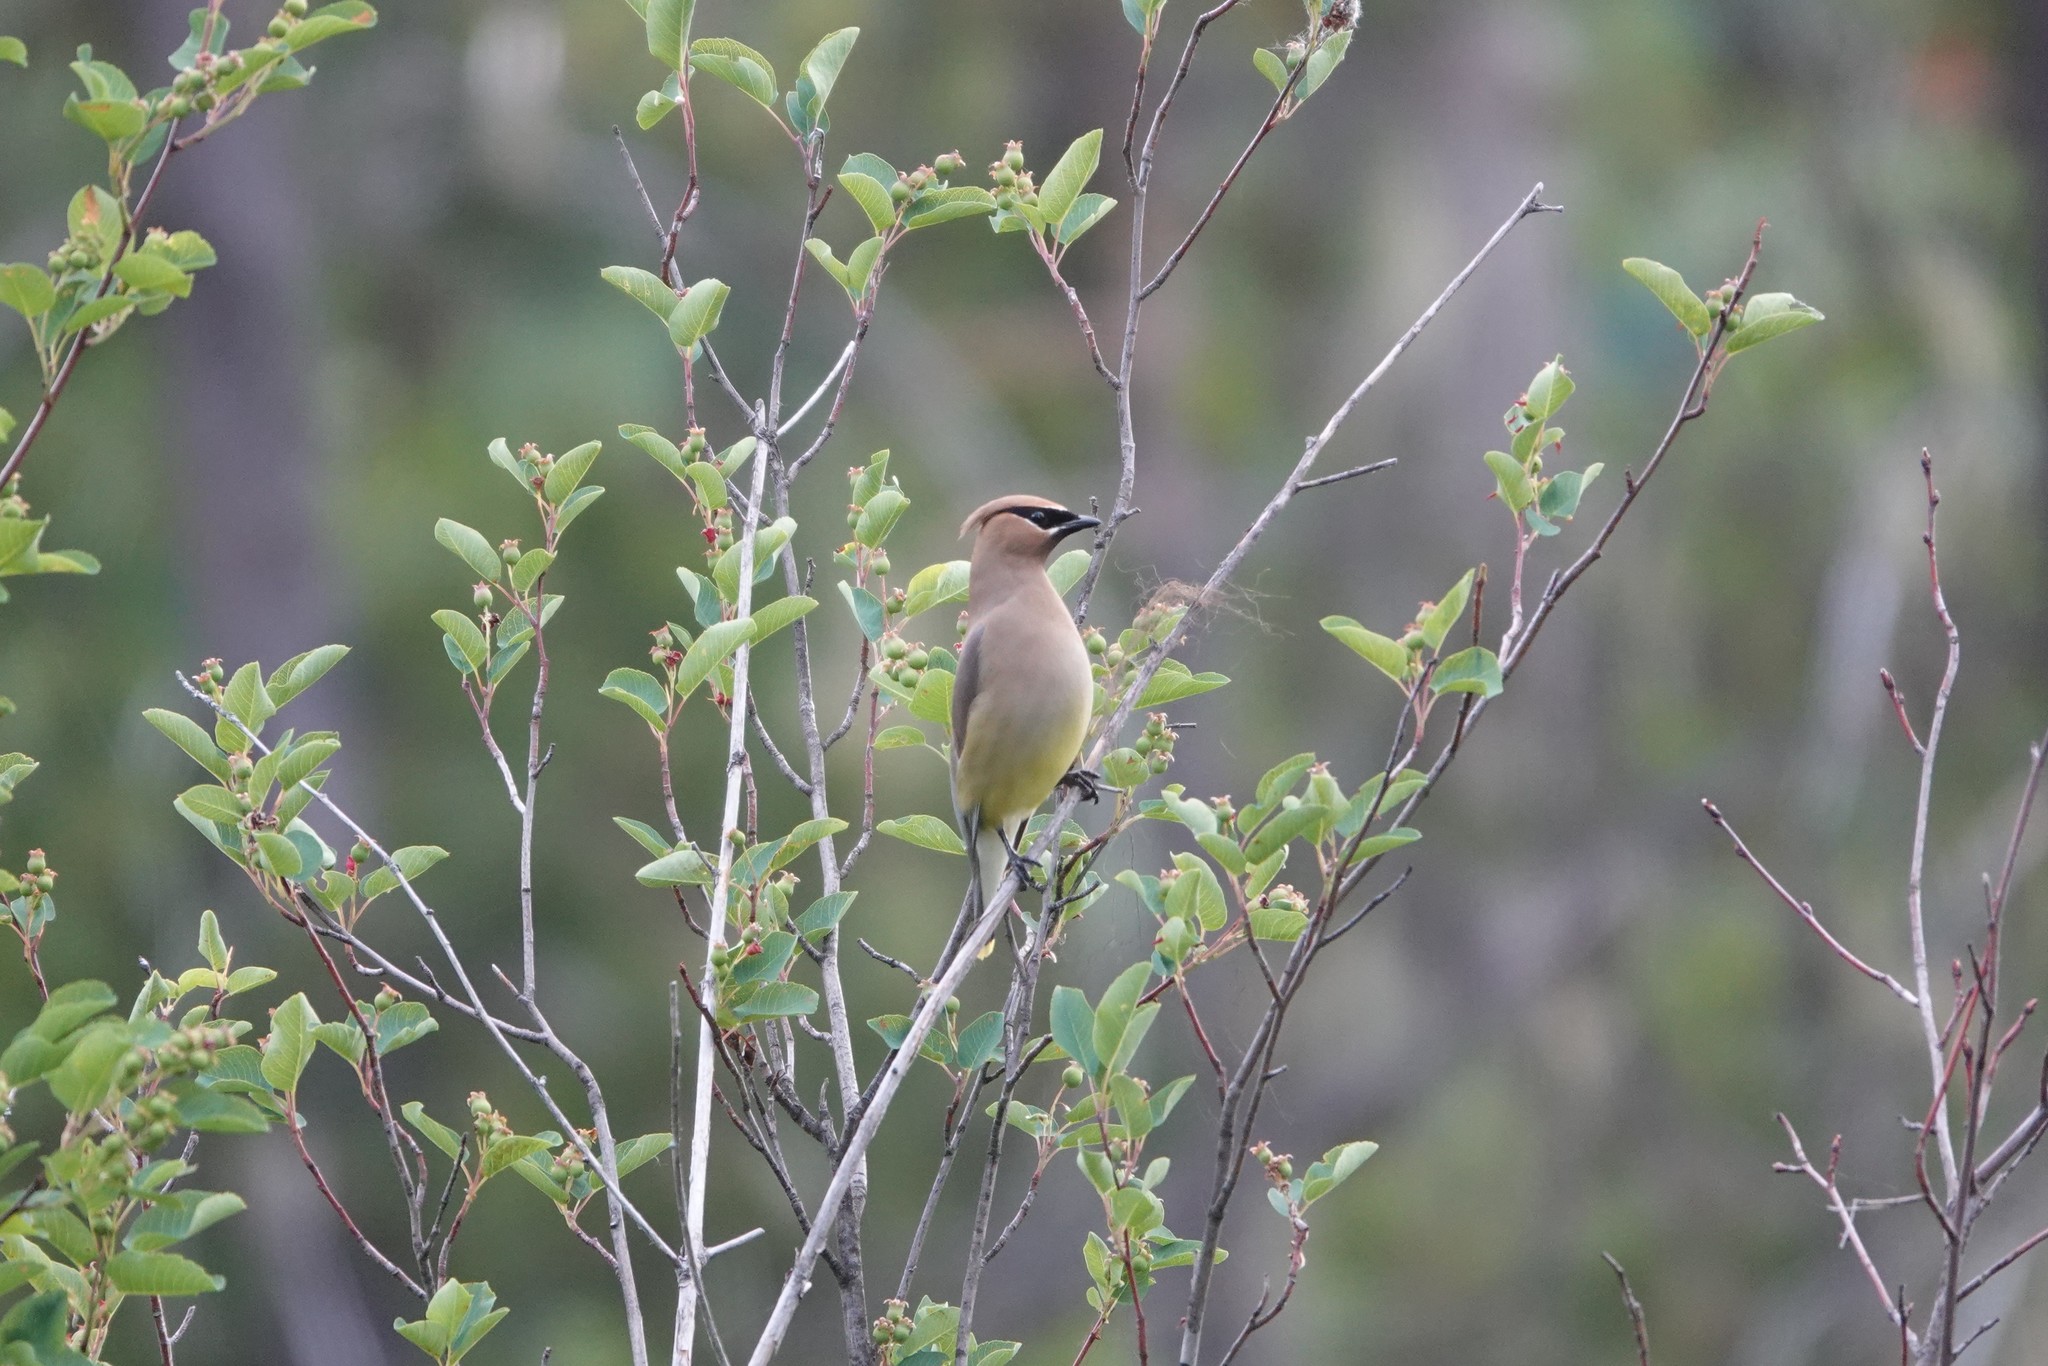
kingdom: Animalia
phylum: Chordata
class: Aves
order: Passeriformes
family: Bombycillidae
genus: Bombycilla
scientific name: Bombycilla cedrorum
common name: Cedar waxwing
